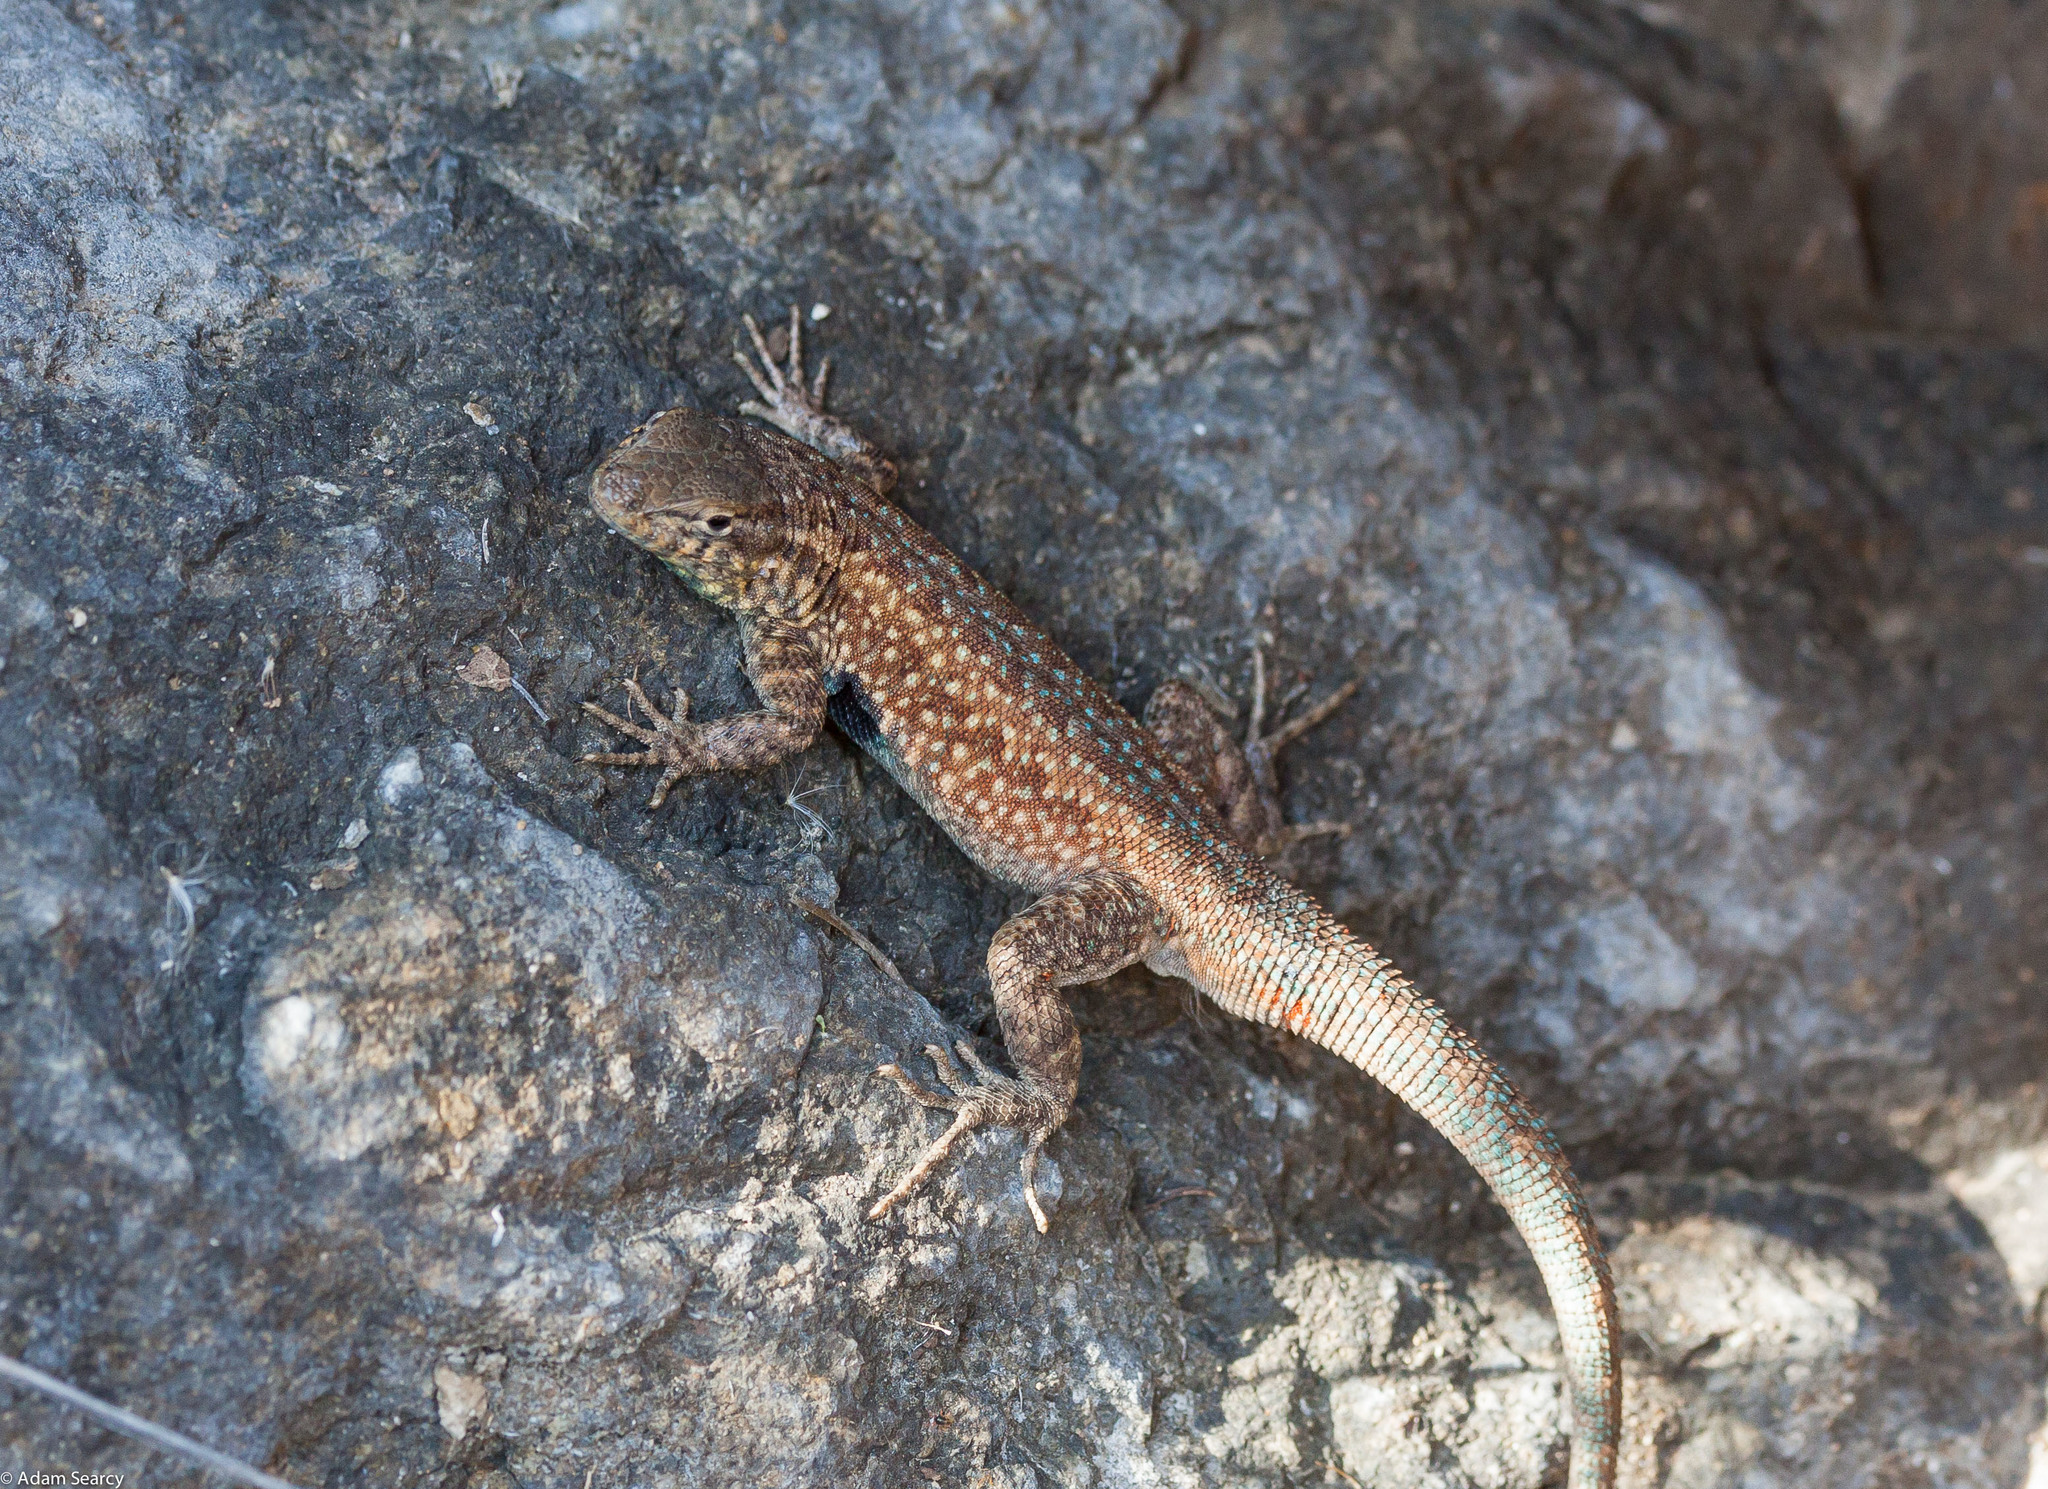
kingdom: Animalia
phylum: Chordata
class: Squamata
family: Phrynosomatidae
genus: Uta
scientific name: Uta stansburiana
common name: Side-blotched lizard
